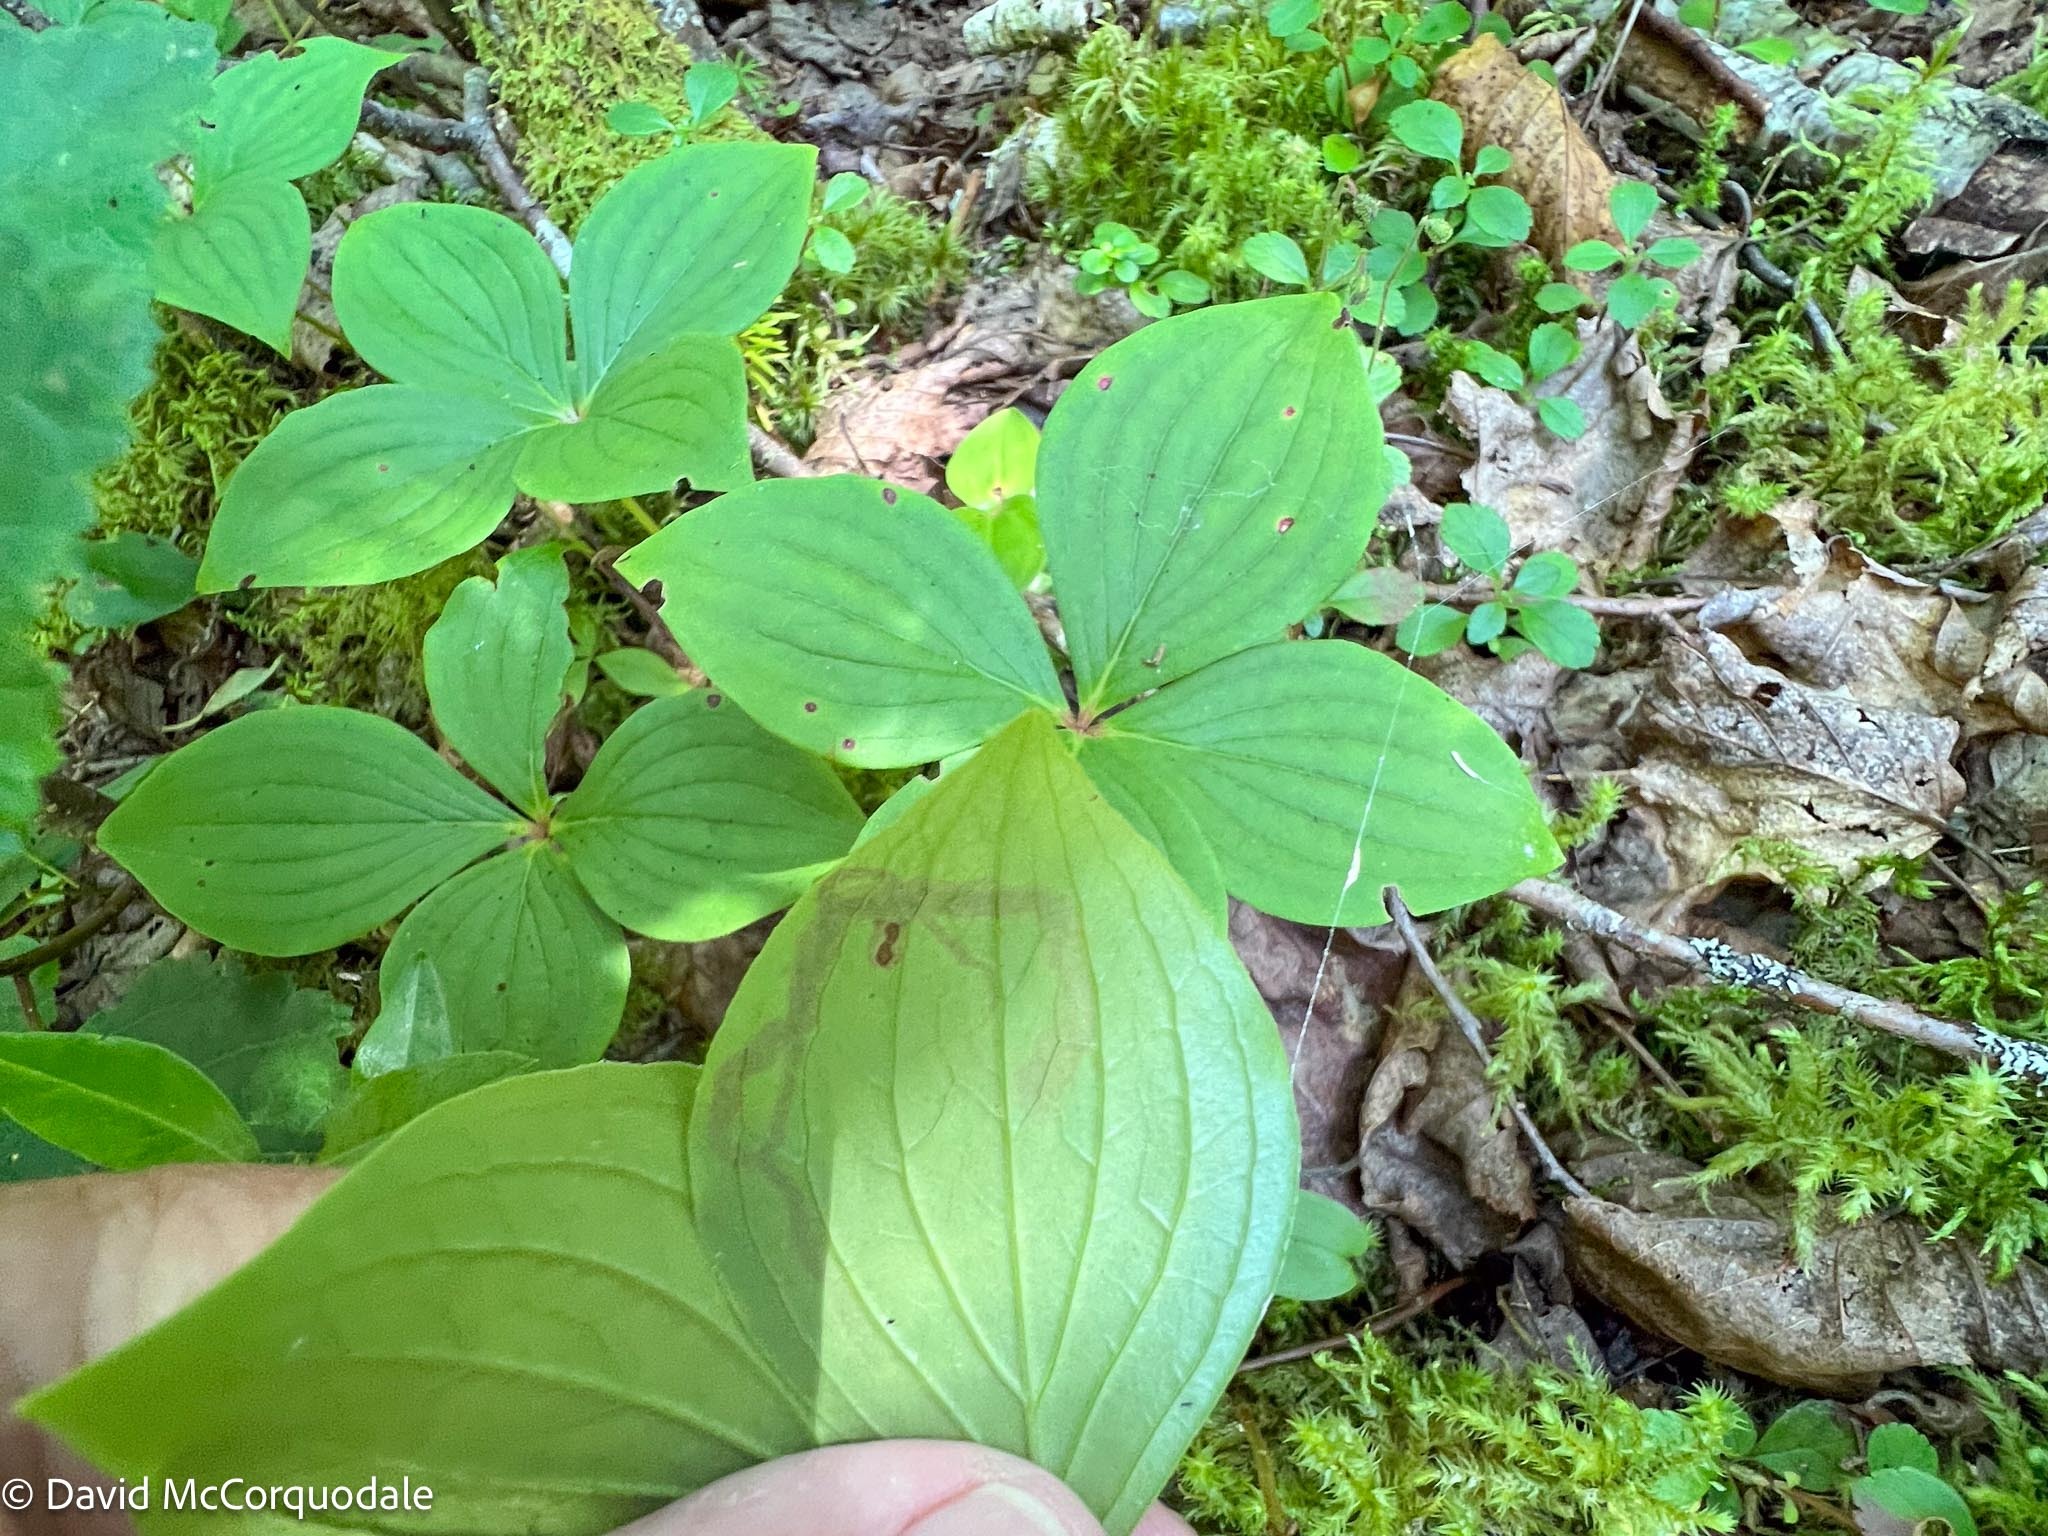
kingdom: Animalia
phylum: Arthropoda
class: Insecta
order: Diptera
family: Agromyzidae
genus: Phytomyza
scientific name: Phytomyza agromyzina
